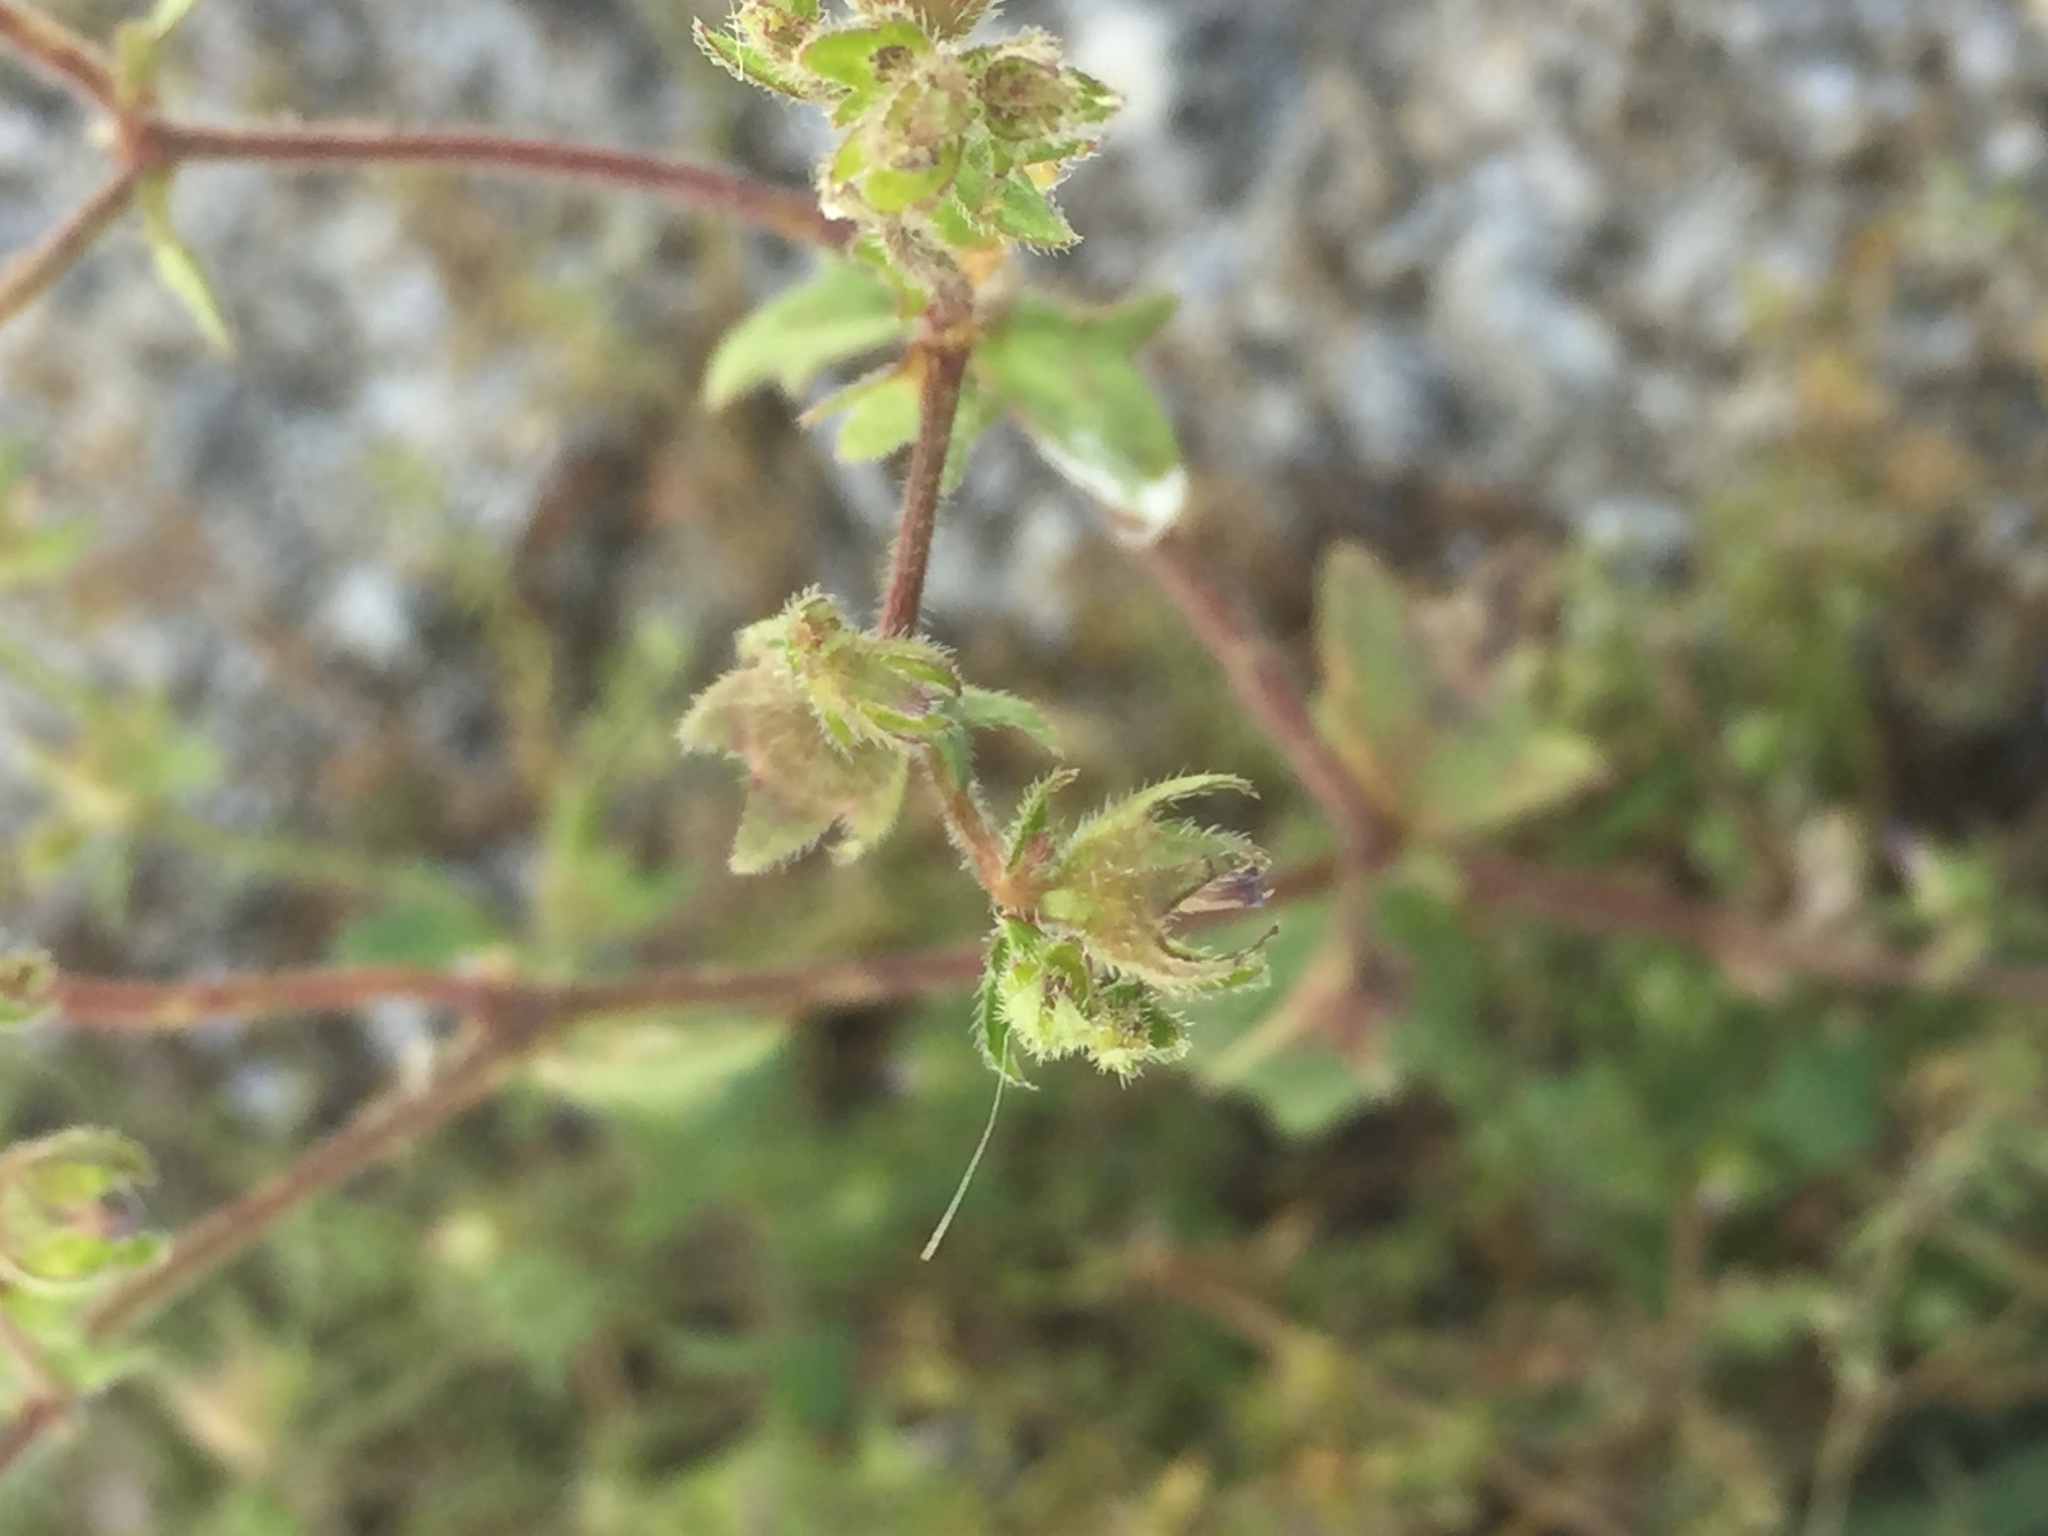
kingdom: Plantae
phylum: Tracheophyta
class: Magnoliopsida
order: Asterales
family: Campanulaceae
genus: Campanula
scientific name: Campanula erinus
